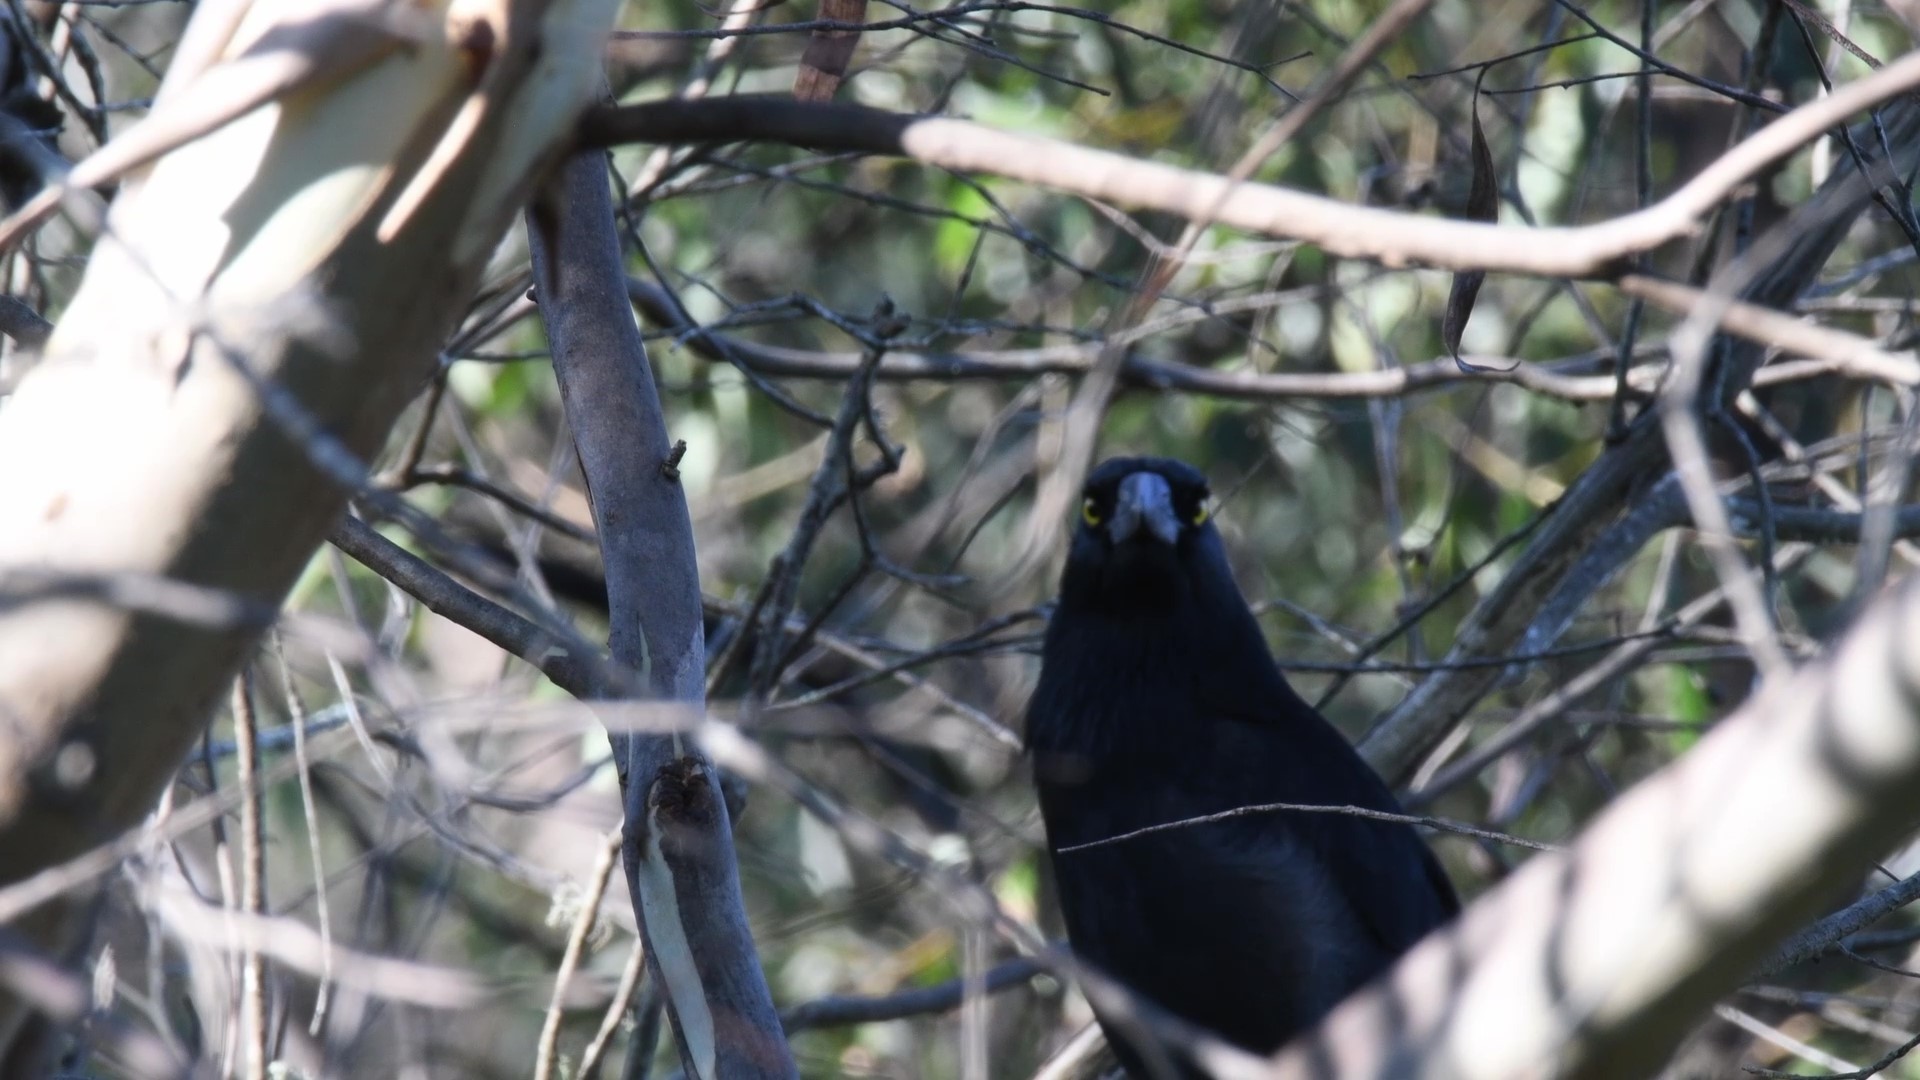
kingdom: Animalia
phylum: Chordata
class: Aves
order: Passeriformes
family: Cracticidae
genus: Strepera
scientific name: Strepera graculina
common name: Pied currawong
